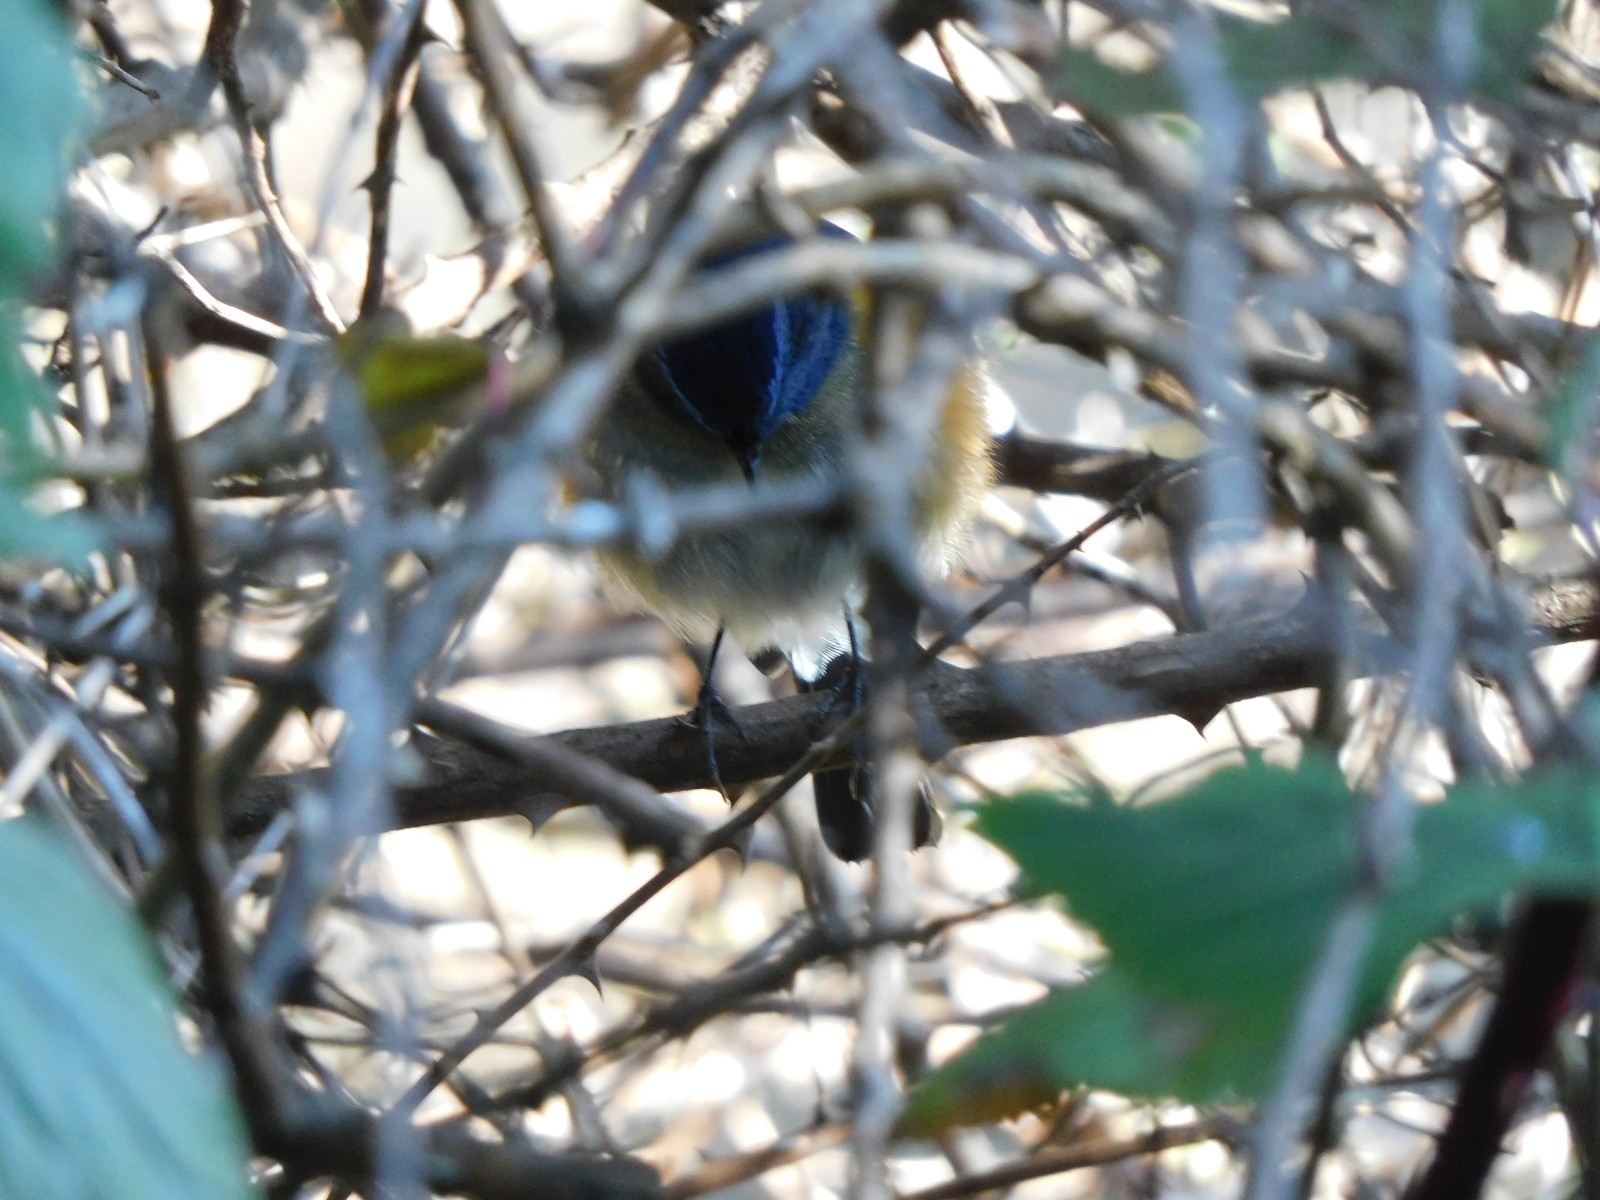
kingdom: Animalia
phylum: Chordata
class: Aves
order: Passeriformes
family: Muscicapidae
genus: Tarsiger
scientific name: Tarsiger rufilatus
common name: Himalayan bluetail
